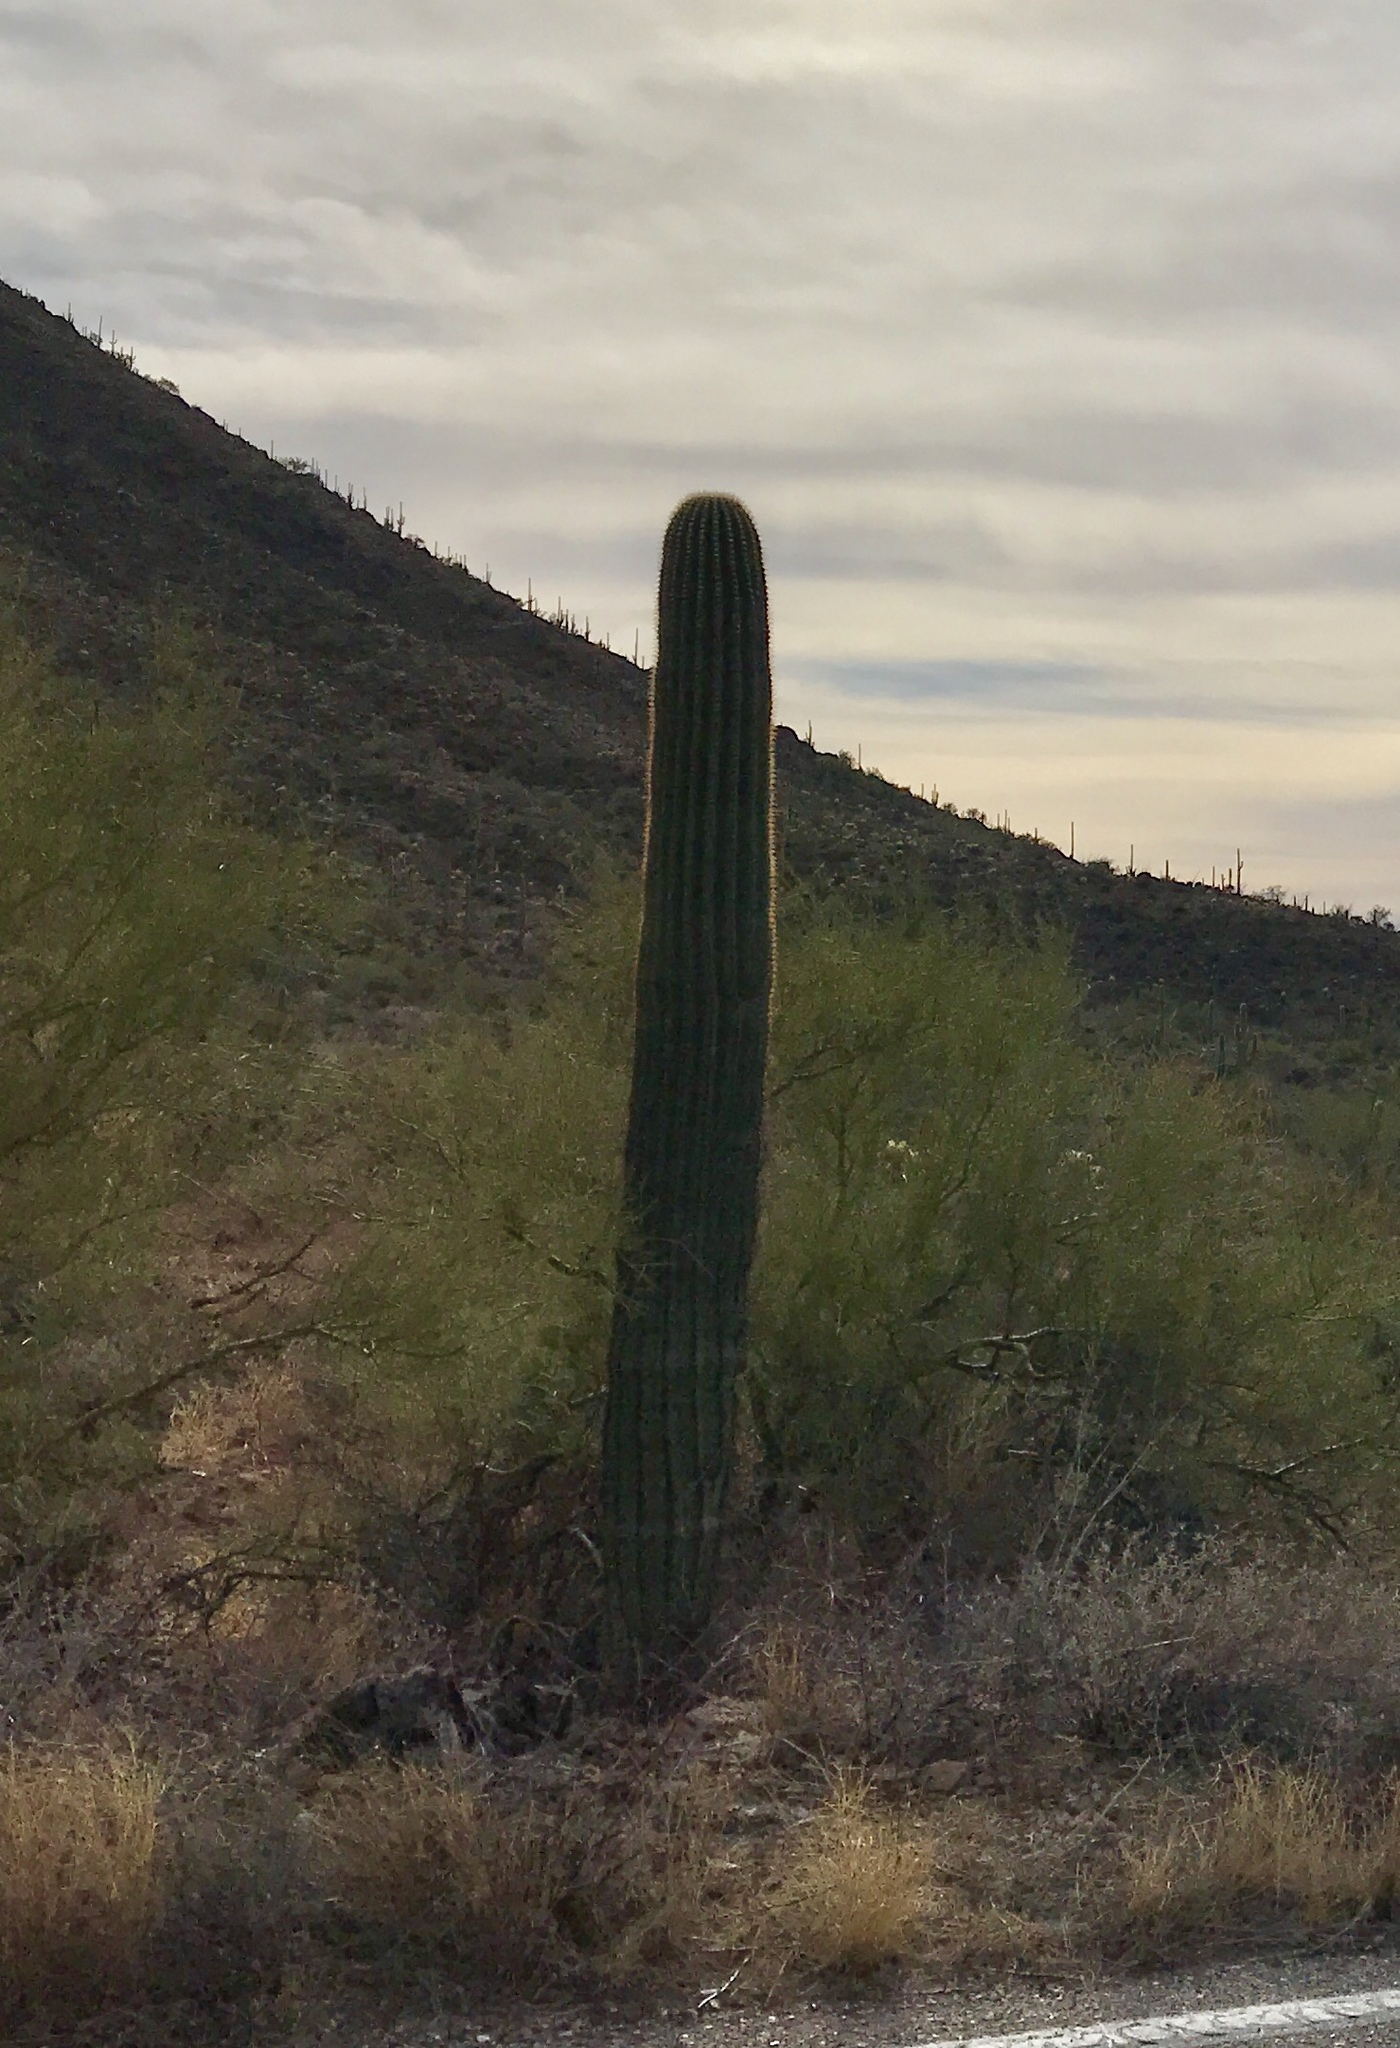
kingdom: Plantae
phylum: Tracheophyta
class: Magnoliopsida
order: Caryophyllales
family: Cactaceae
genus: Carnegiea
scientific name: Carnegiea gigantea
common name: Saguaro
